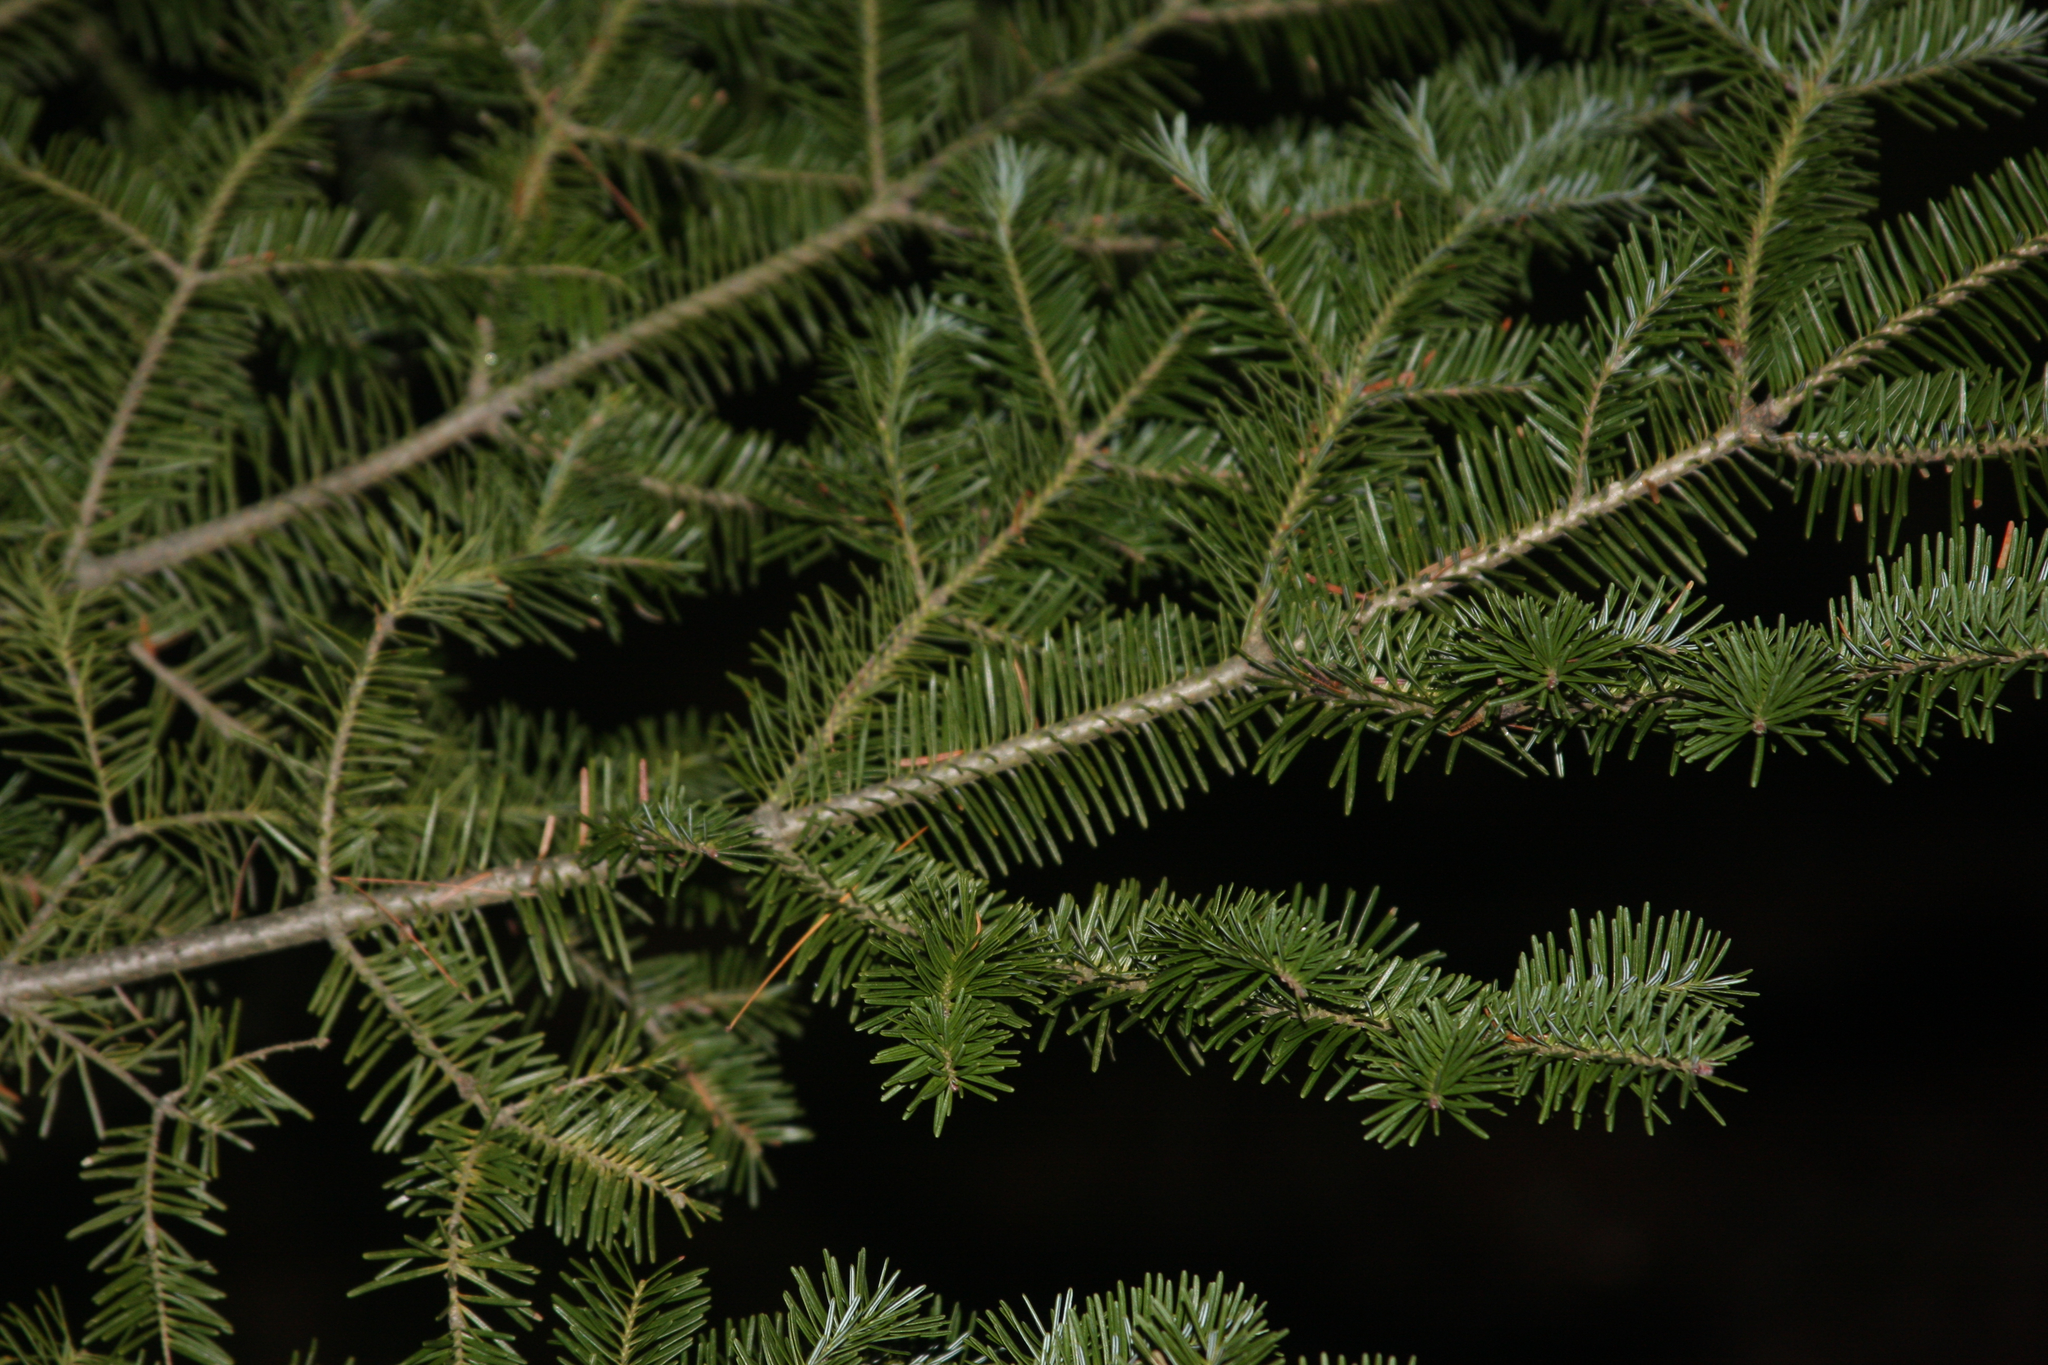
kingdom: Plantae
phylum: Tracheophyta
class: Pinopsida
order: Pinales
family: Pinaceae
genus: Abies
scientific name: Abies balsamea
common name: Balsam fir
